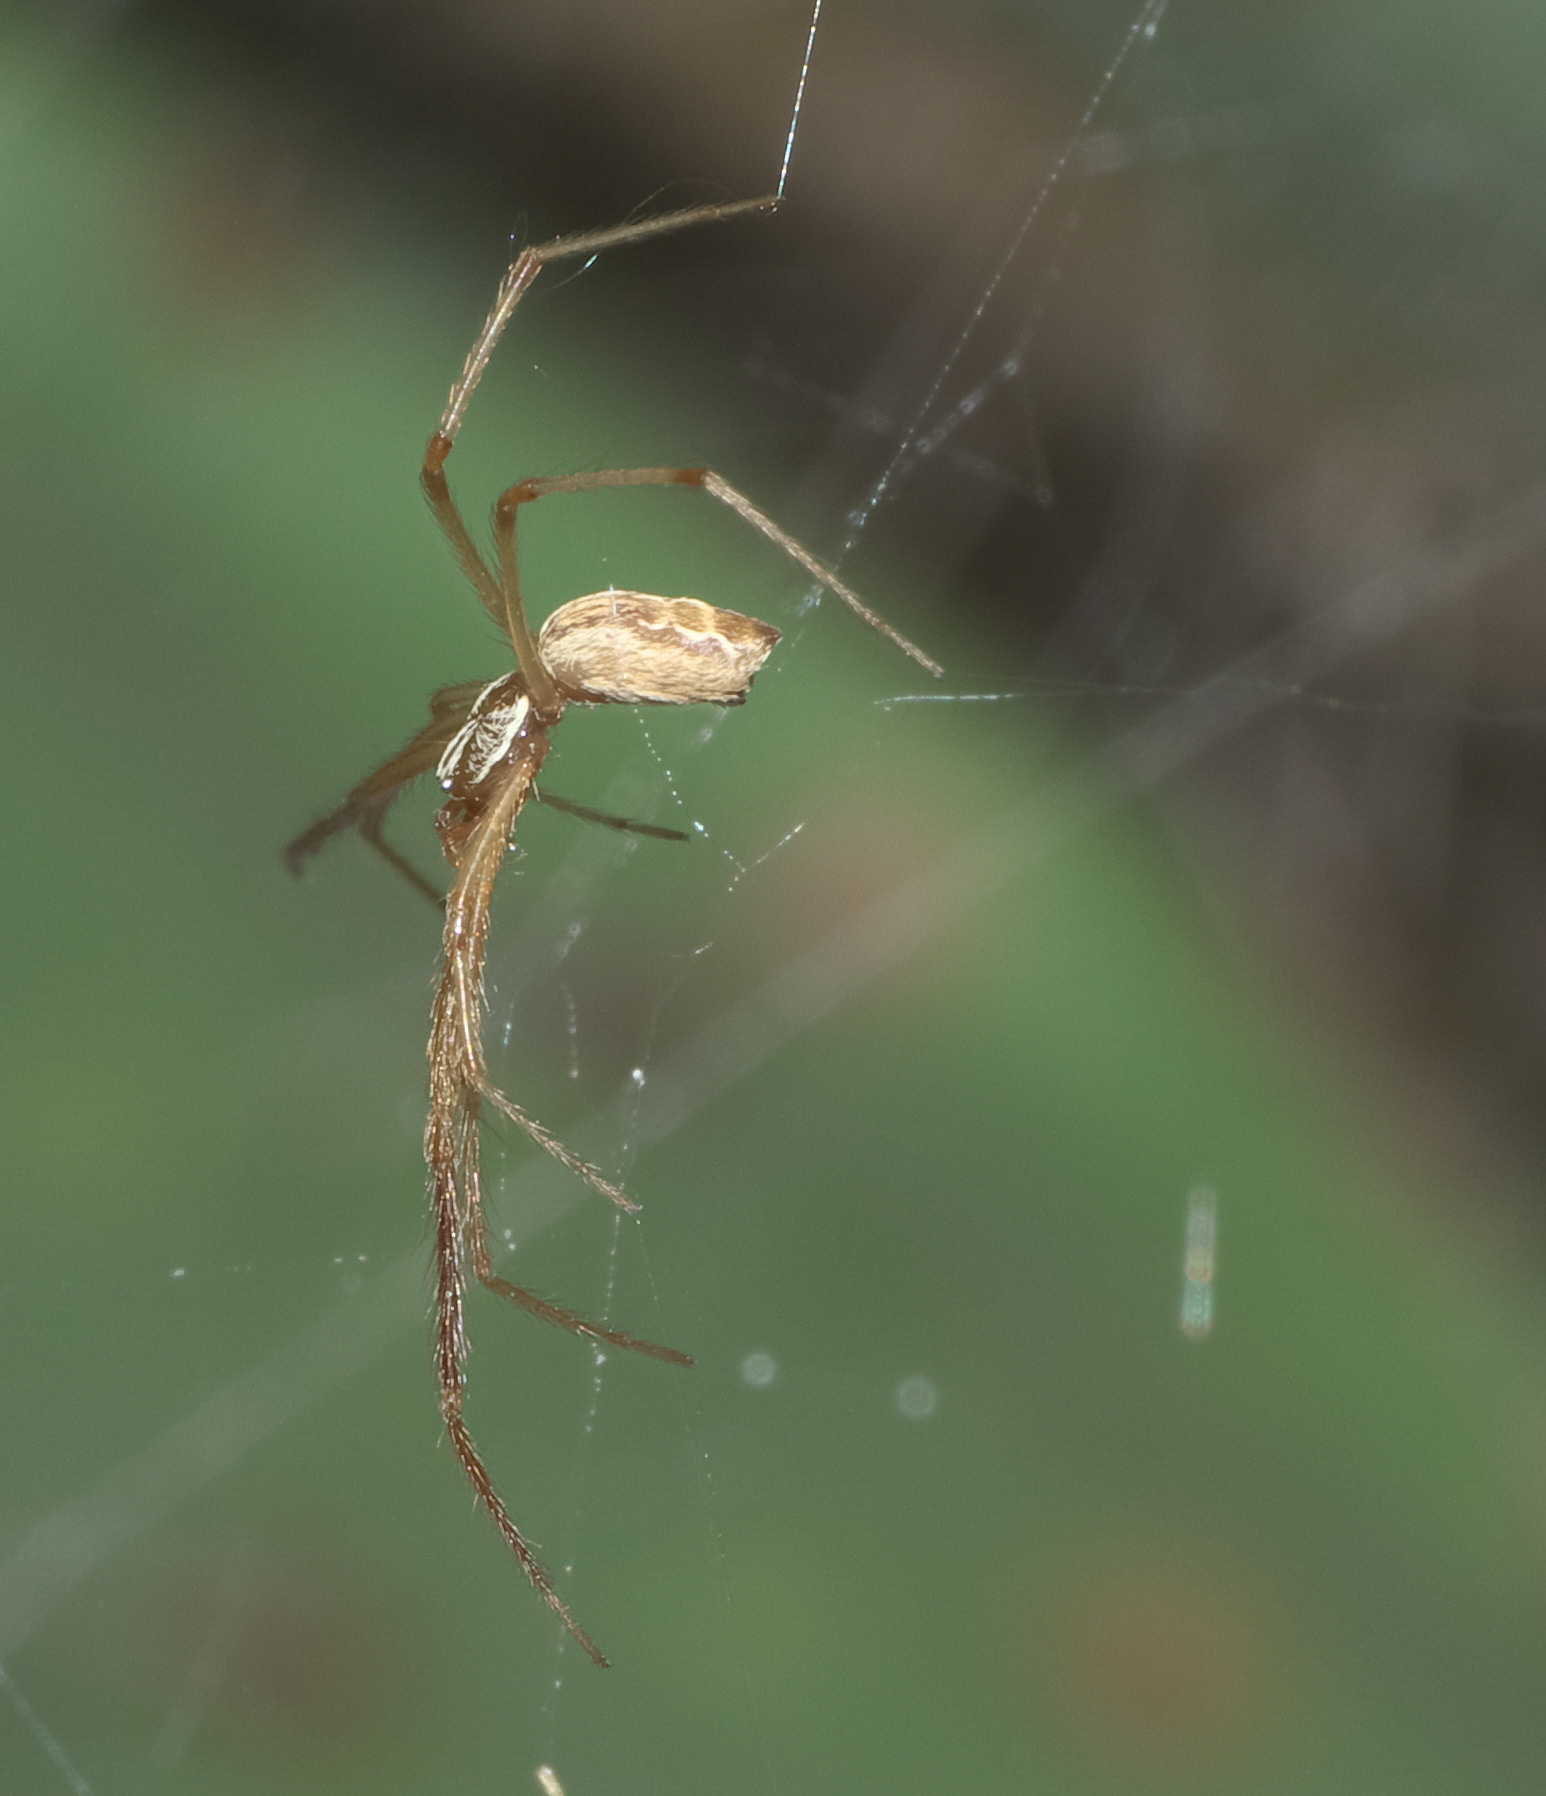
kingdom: Animalia
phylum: Arthropoda
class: Arachnida
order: Araneae
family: Diguetidae
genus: Diguetia
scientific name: Diguetia canities
